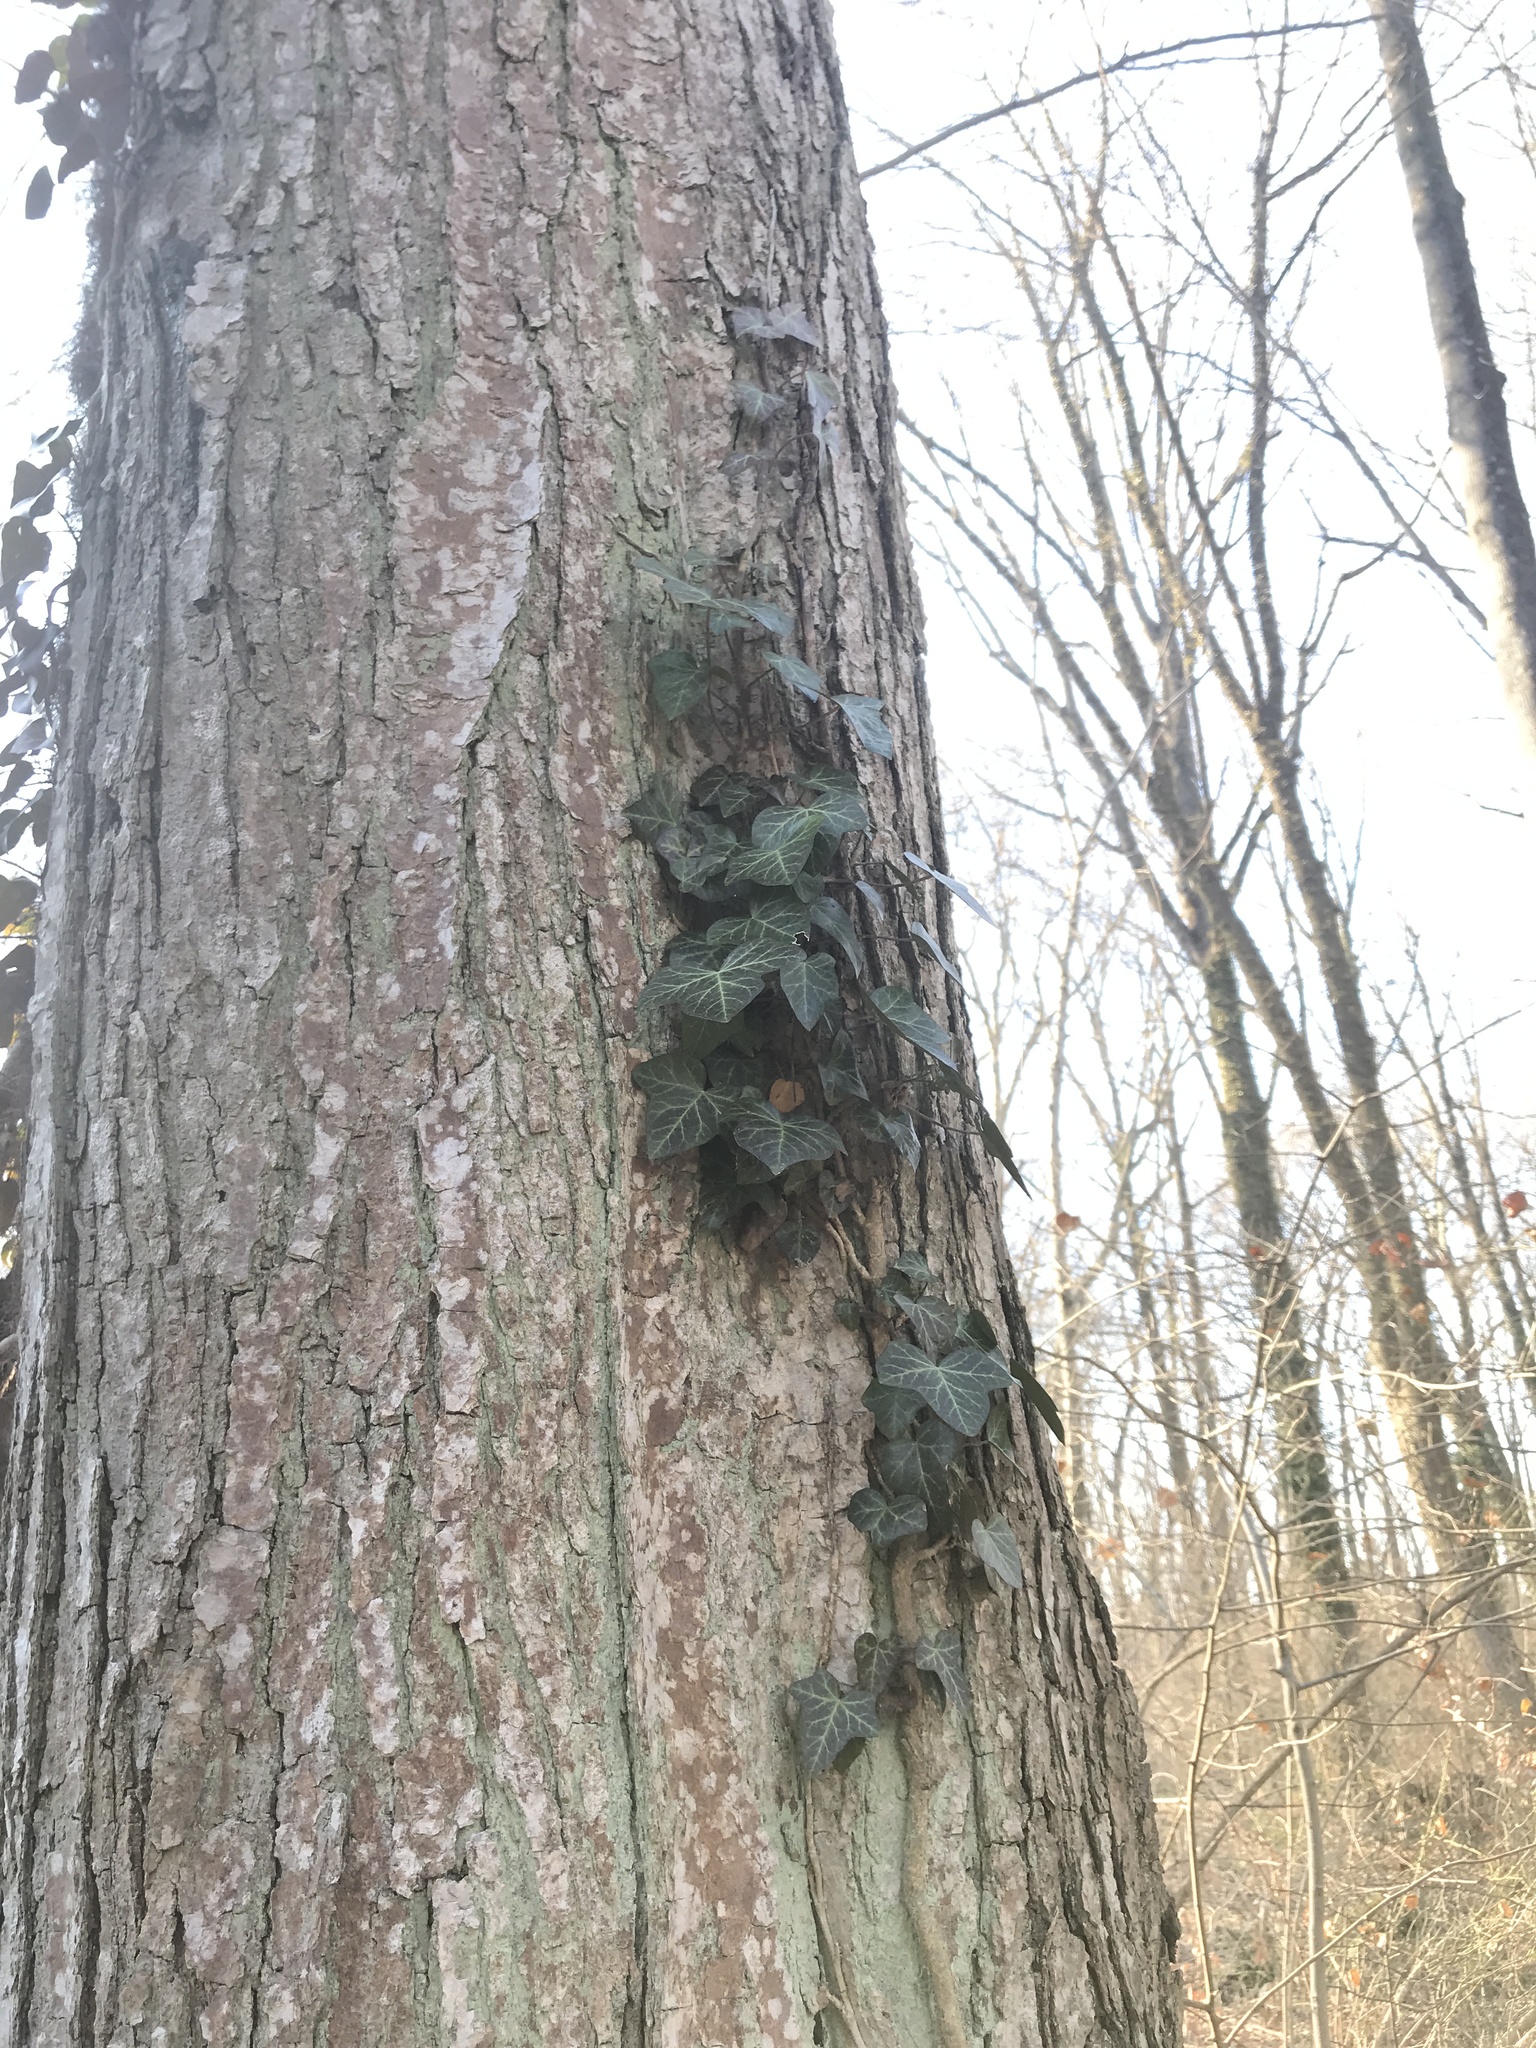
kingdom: Plantae
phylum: Tracheophyta
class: Magnoliopsida
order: Apiales
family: Araliaceae
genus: Hedera
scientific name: Hedera helix
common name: Ivy
